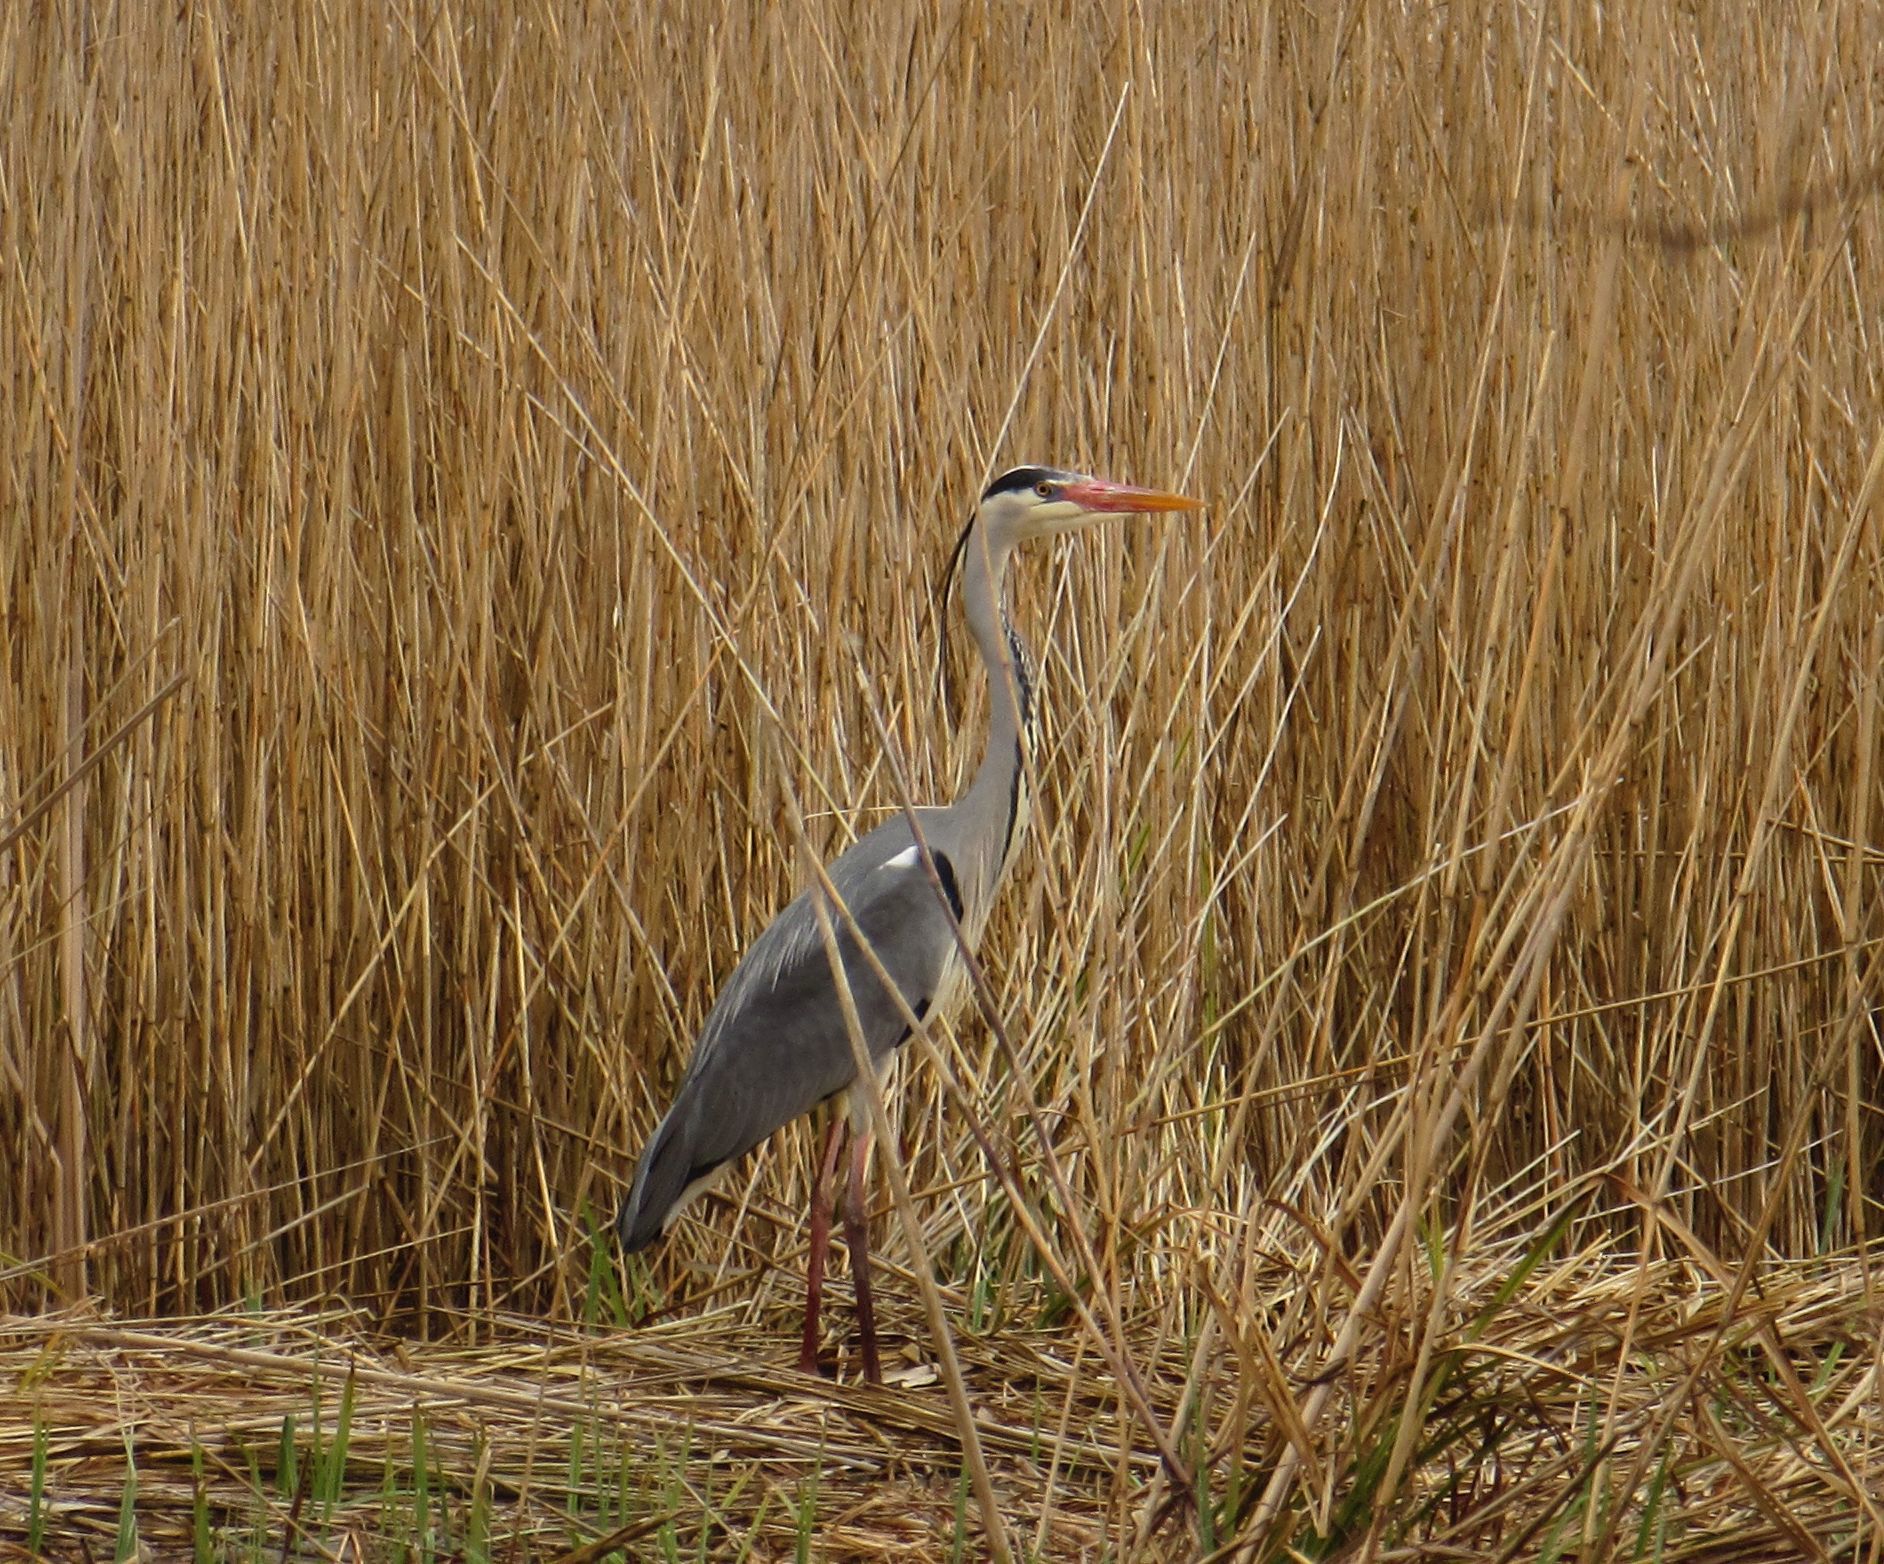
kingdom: Animalia
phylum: Chordata
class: Aves
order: Pelecaniformes
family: Ardeidae
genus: Ardea
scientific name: Ardea cinerea
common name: Grey heron
